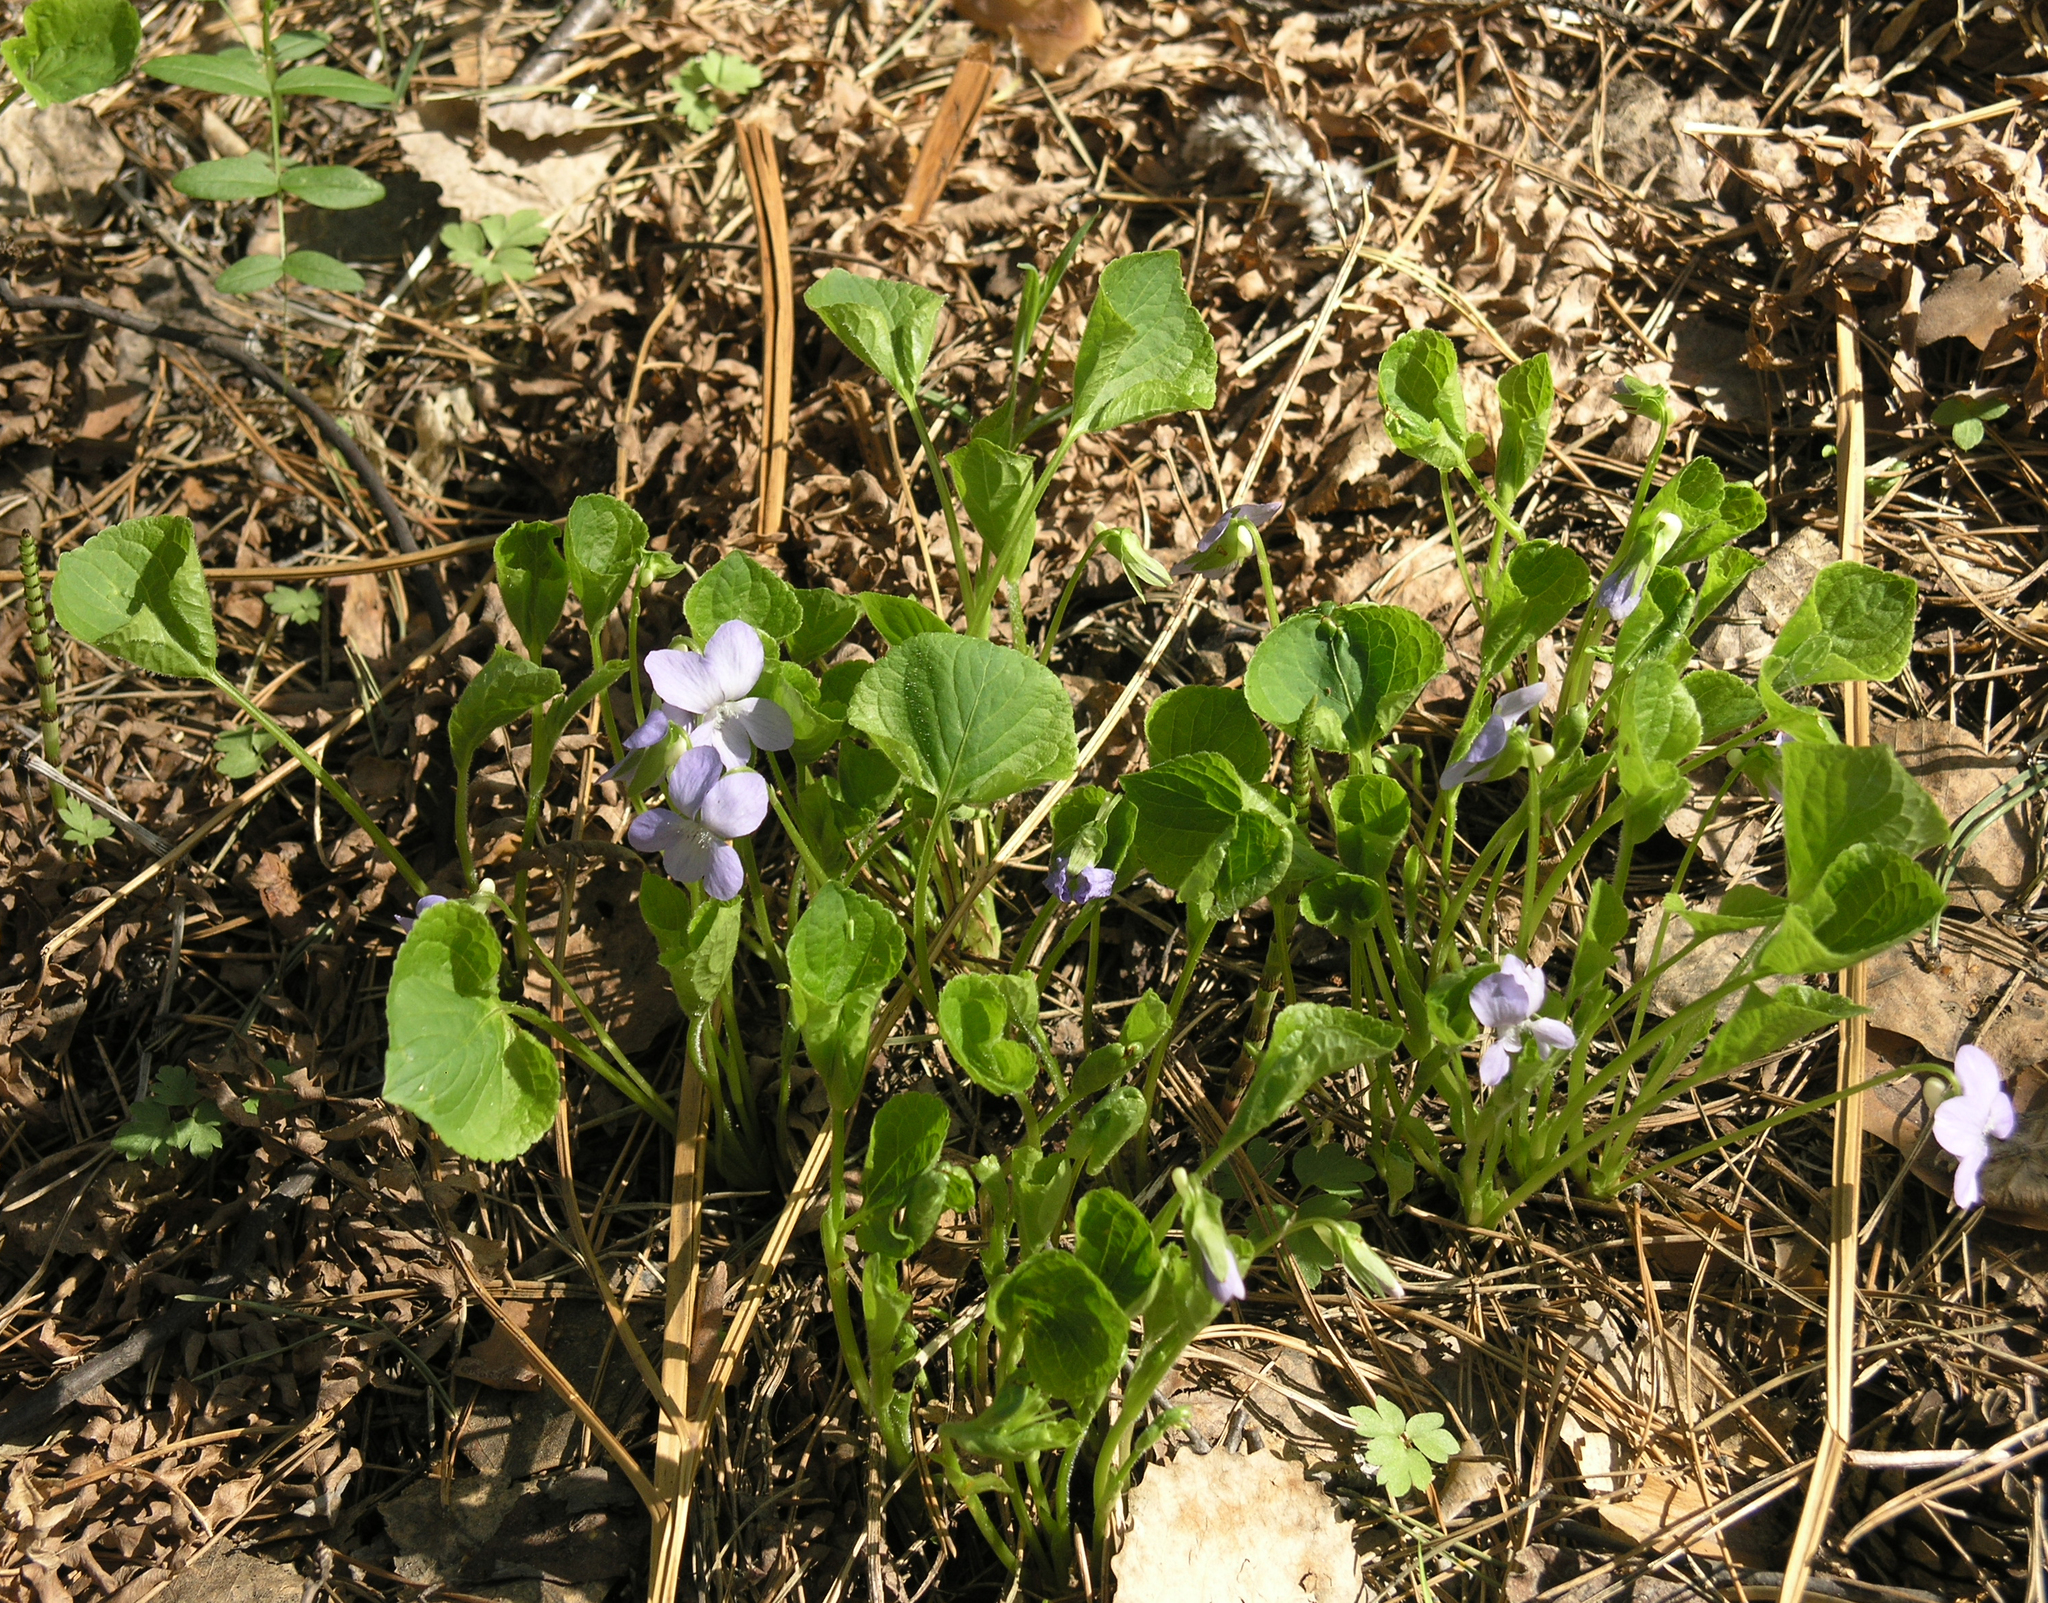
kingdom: Plantae
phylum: Tracheophyta
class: Magnoliopsida
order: Malpighiales
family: Violaceae
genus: Viola
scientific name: Viola mirabilis
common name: Wonder violet
